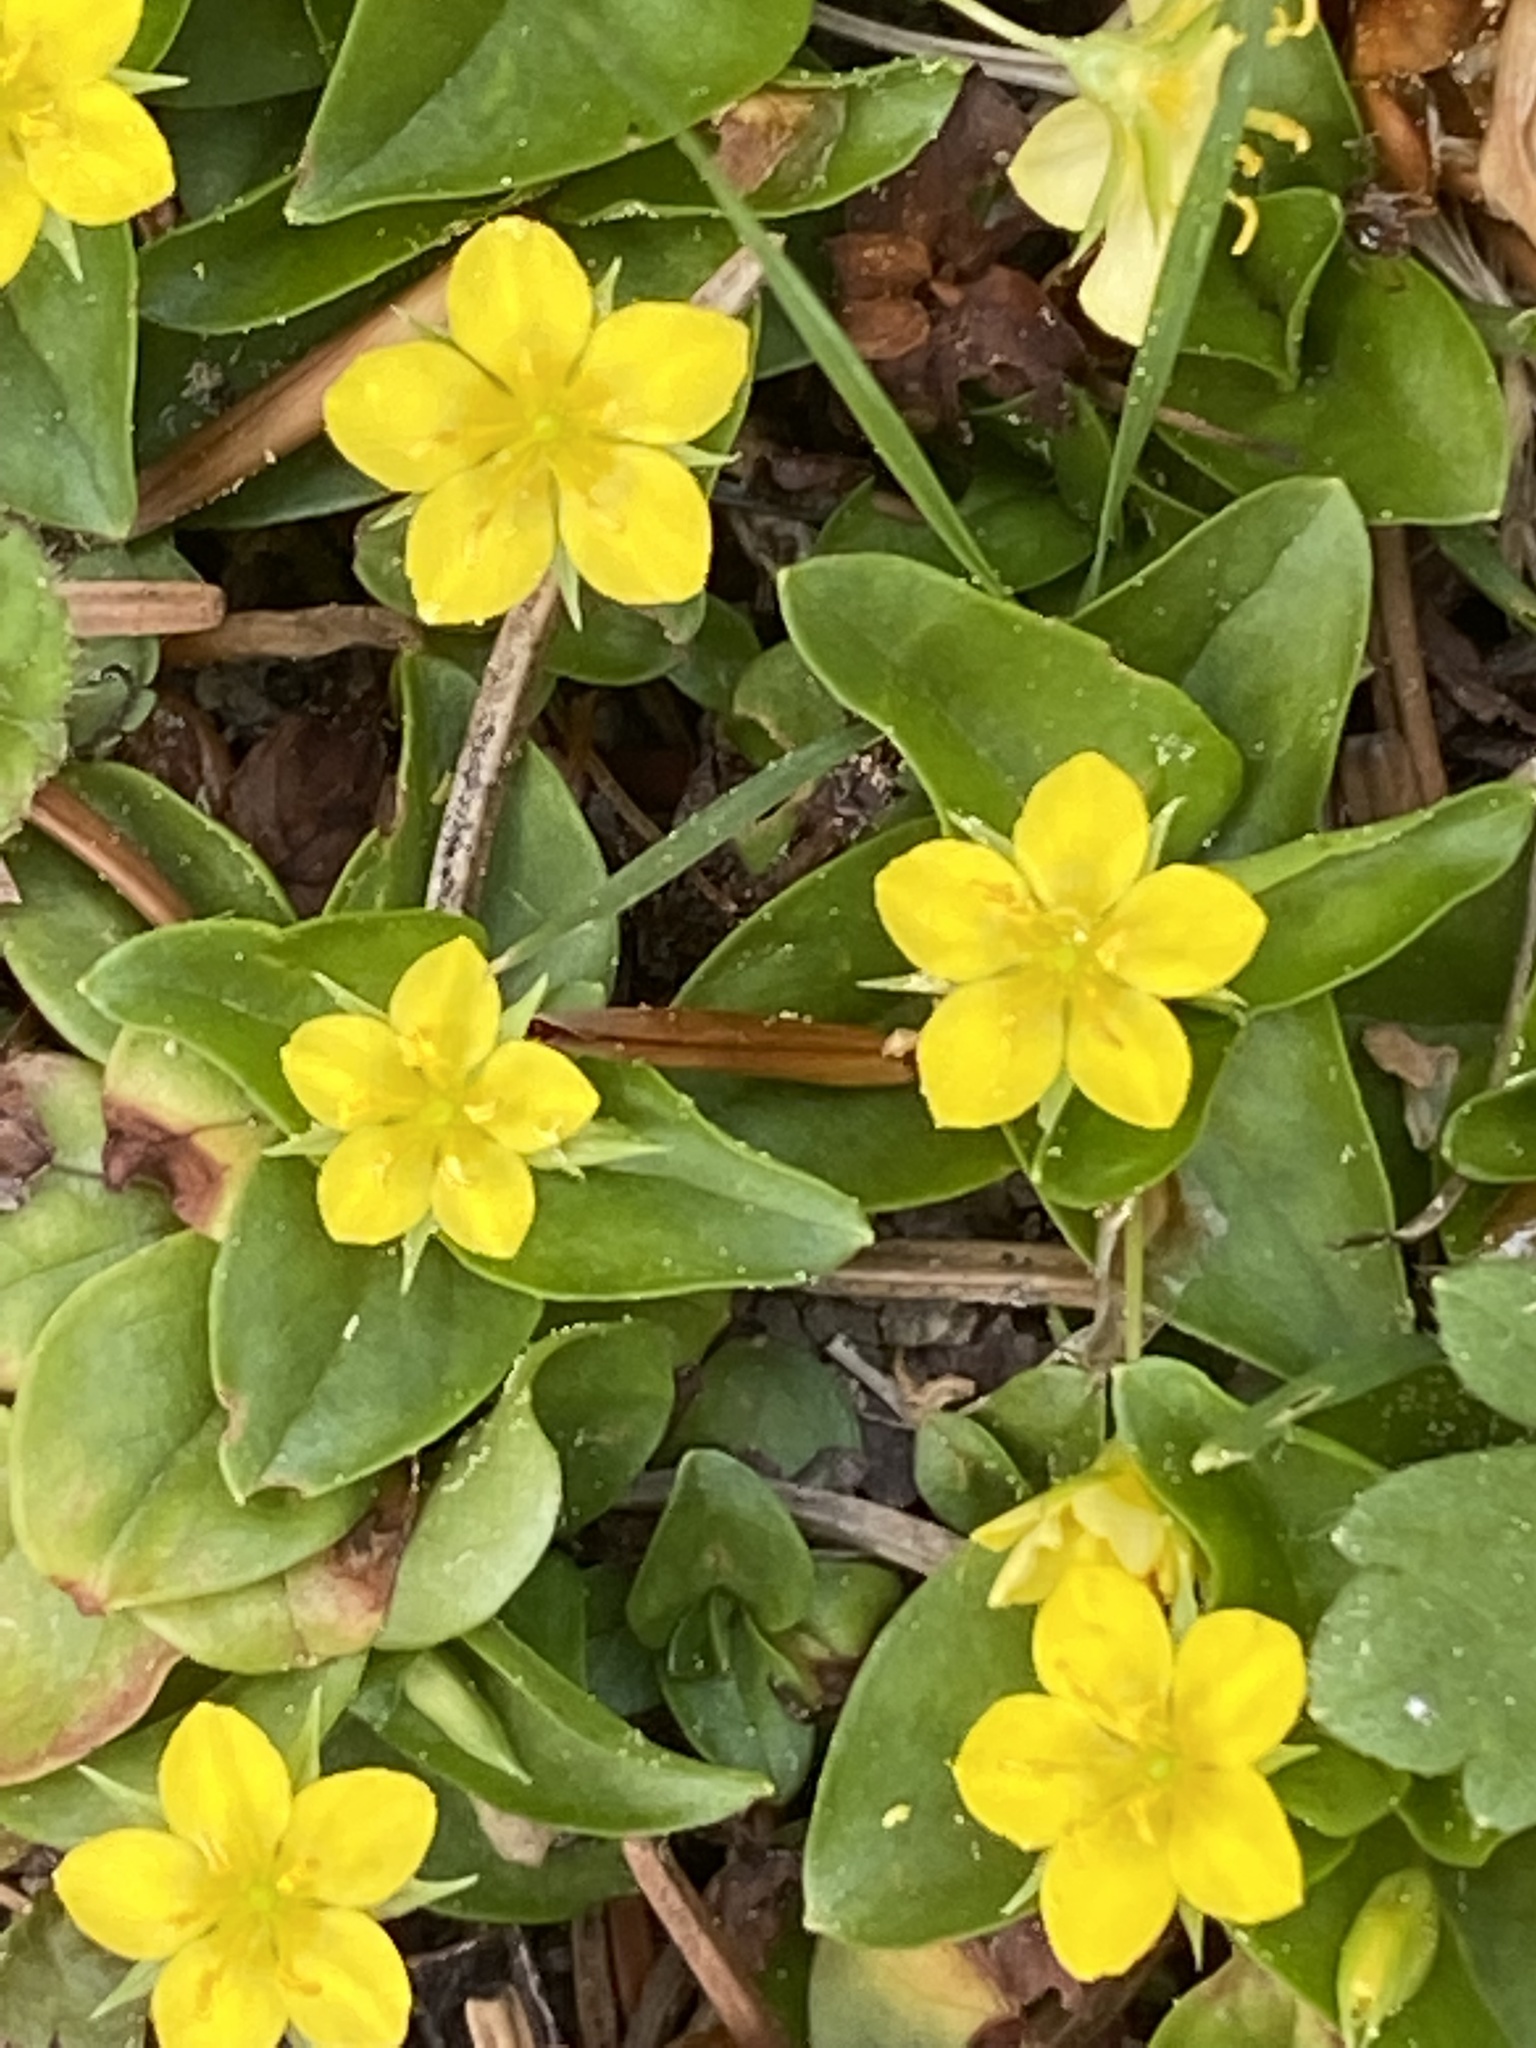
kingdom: Plantae
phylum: Tracheophyta
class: Magnoliopsida
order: Ericales
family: Primulaceae
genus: Lysimachia
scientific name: Lysimachia nemorum
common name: Yellow pimpernel
